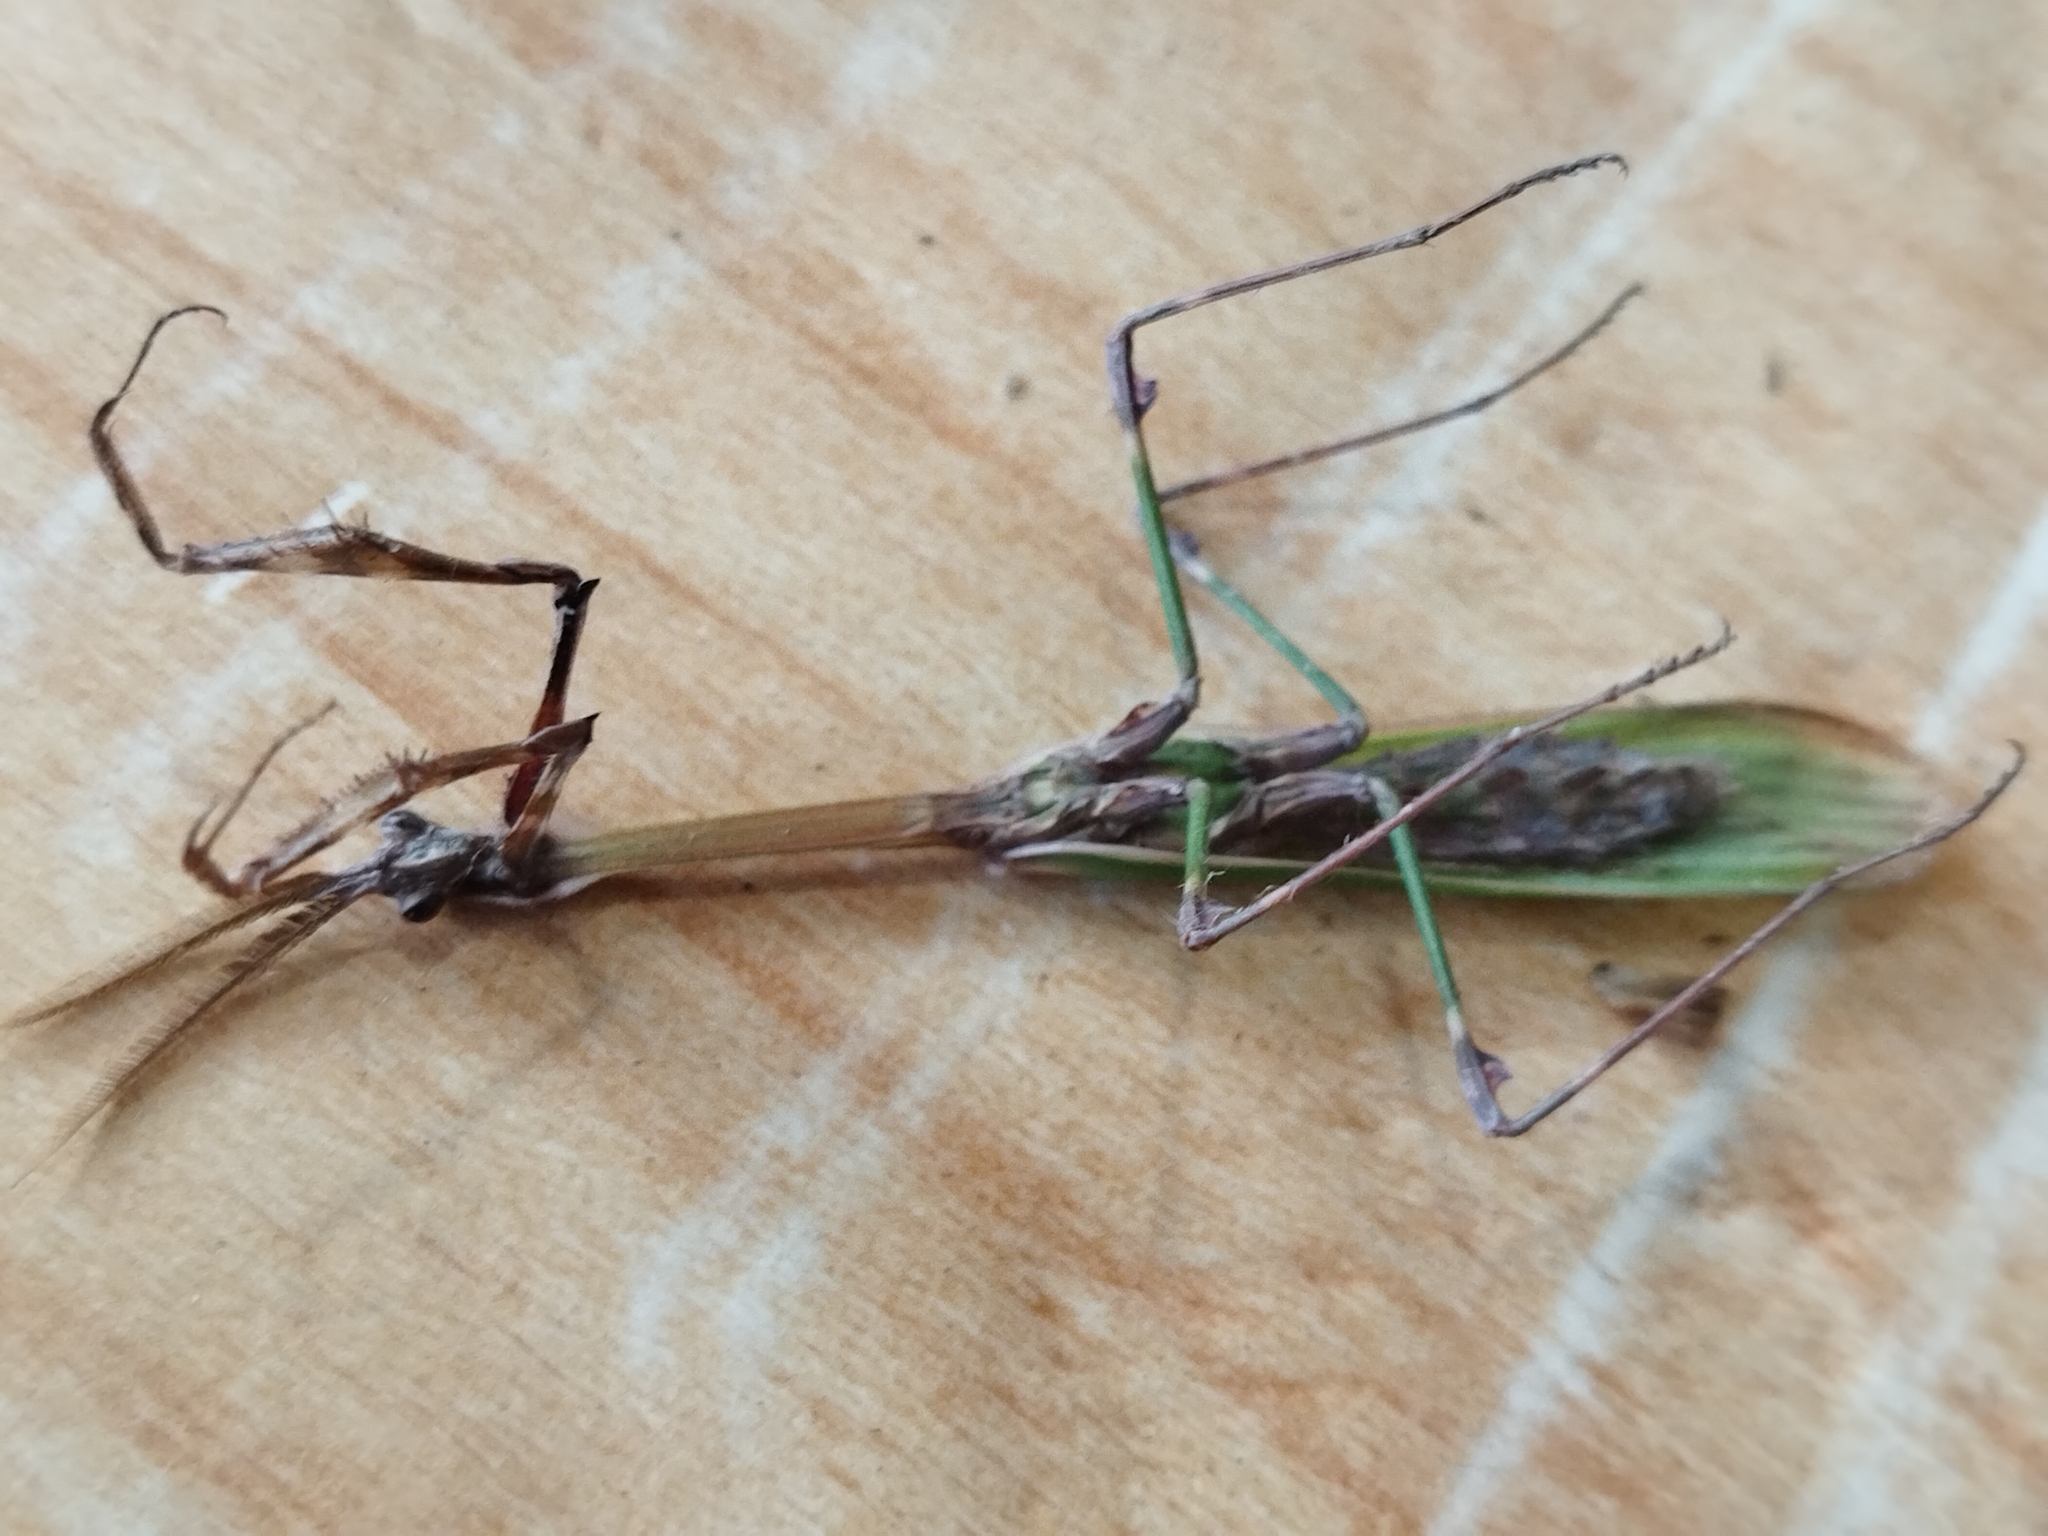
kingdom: Animalia
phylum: Arthropoda
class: Insecta
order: Mantodea
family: Empusidae
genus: Empusa
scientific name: Empusa fasciata
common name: Devil's mare
